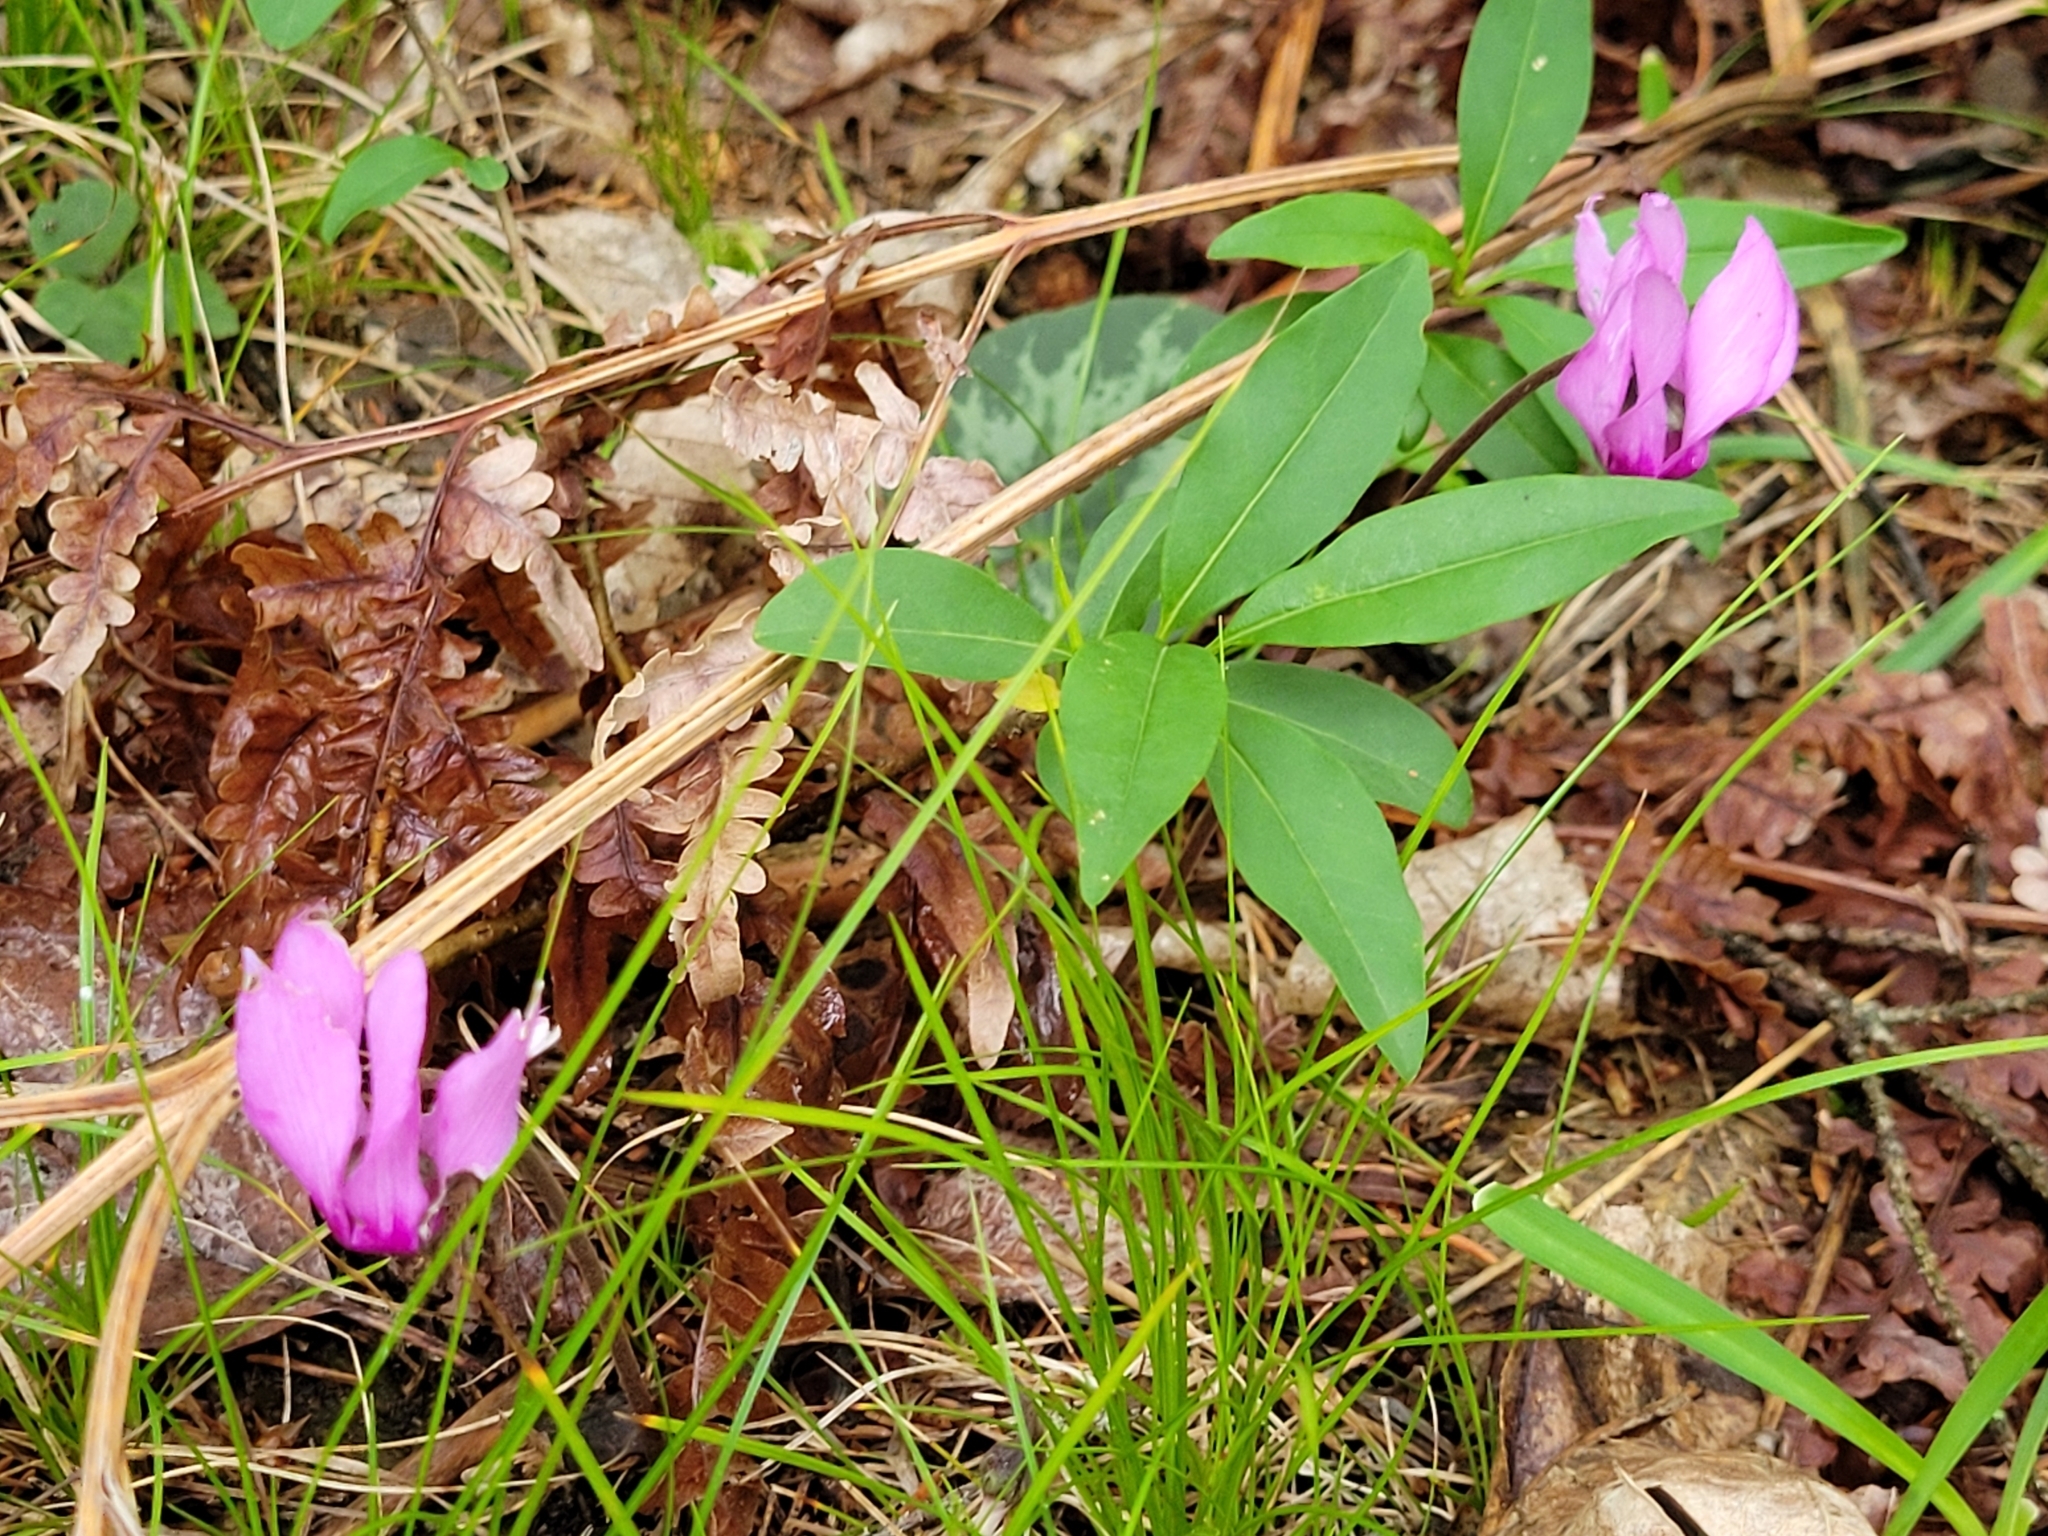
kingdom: Plantae
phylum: Tracheophyta
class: Magnoliopsida
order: Ericales
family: Primulaceae
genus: Cyclamen
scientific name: Cyclamen purpurascens
